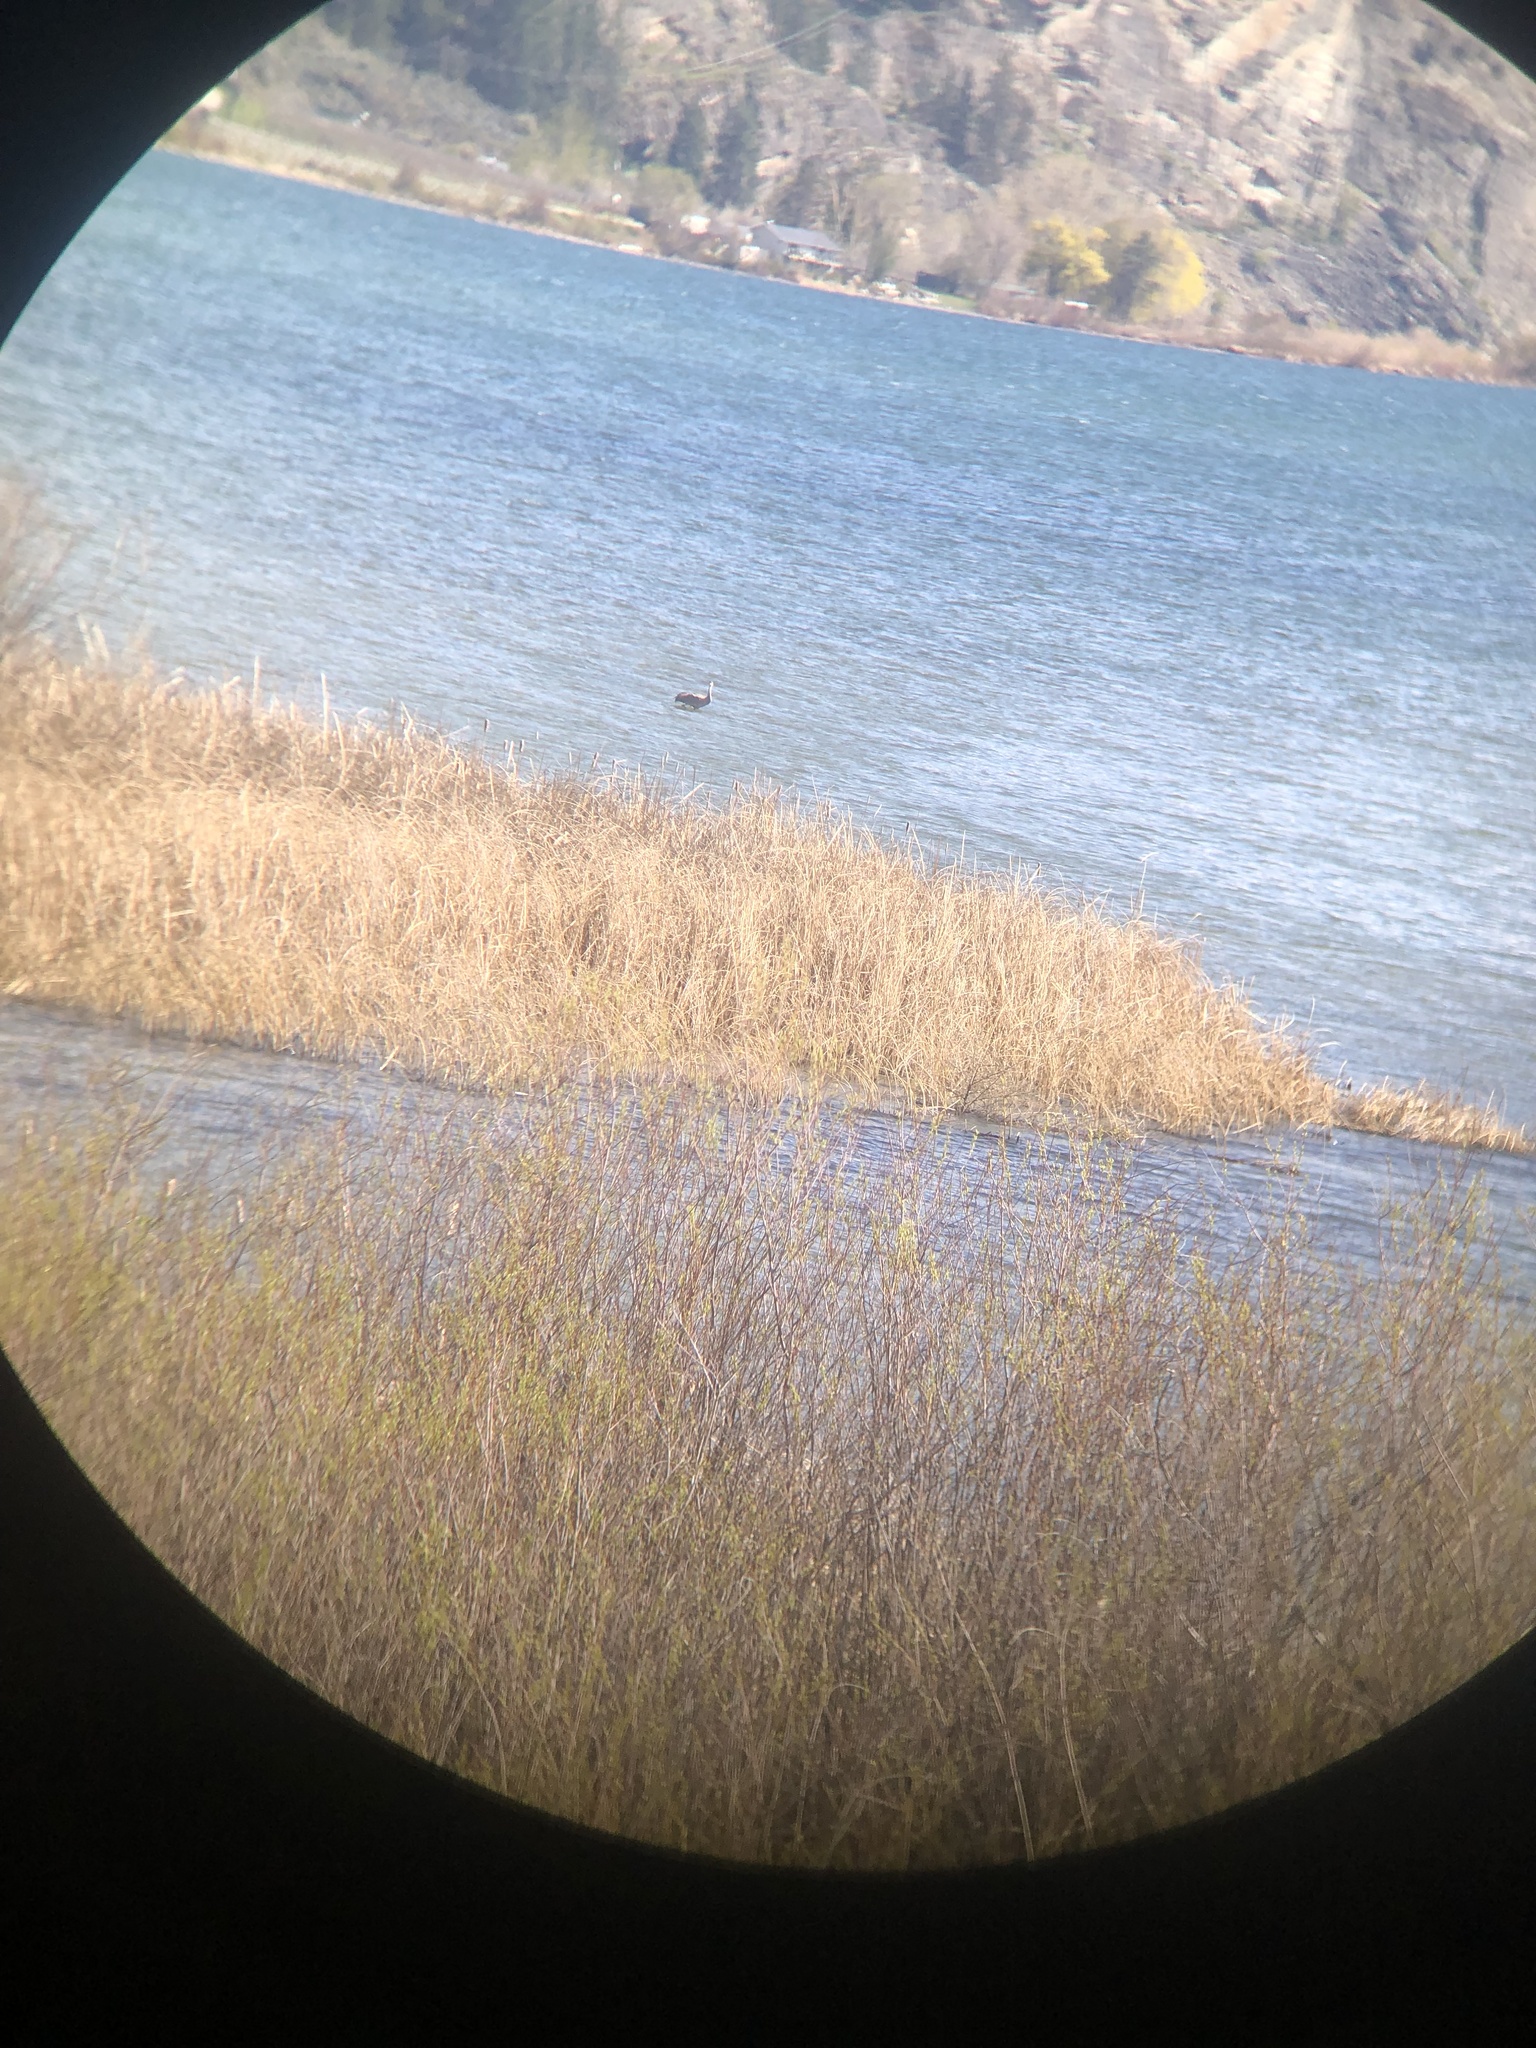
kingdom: Animalia
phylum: Chordata
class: Aves
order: Gruiformes
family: Gruidae
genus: Grus
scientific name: Grus canadensis
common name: Sandhill crane
